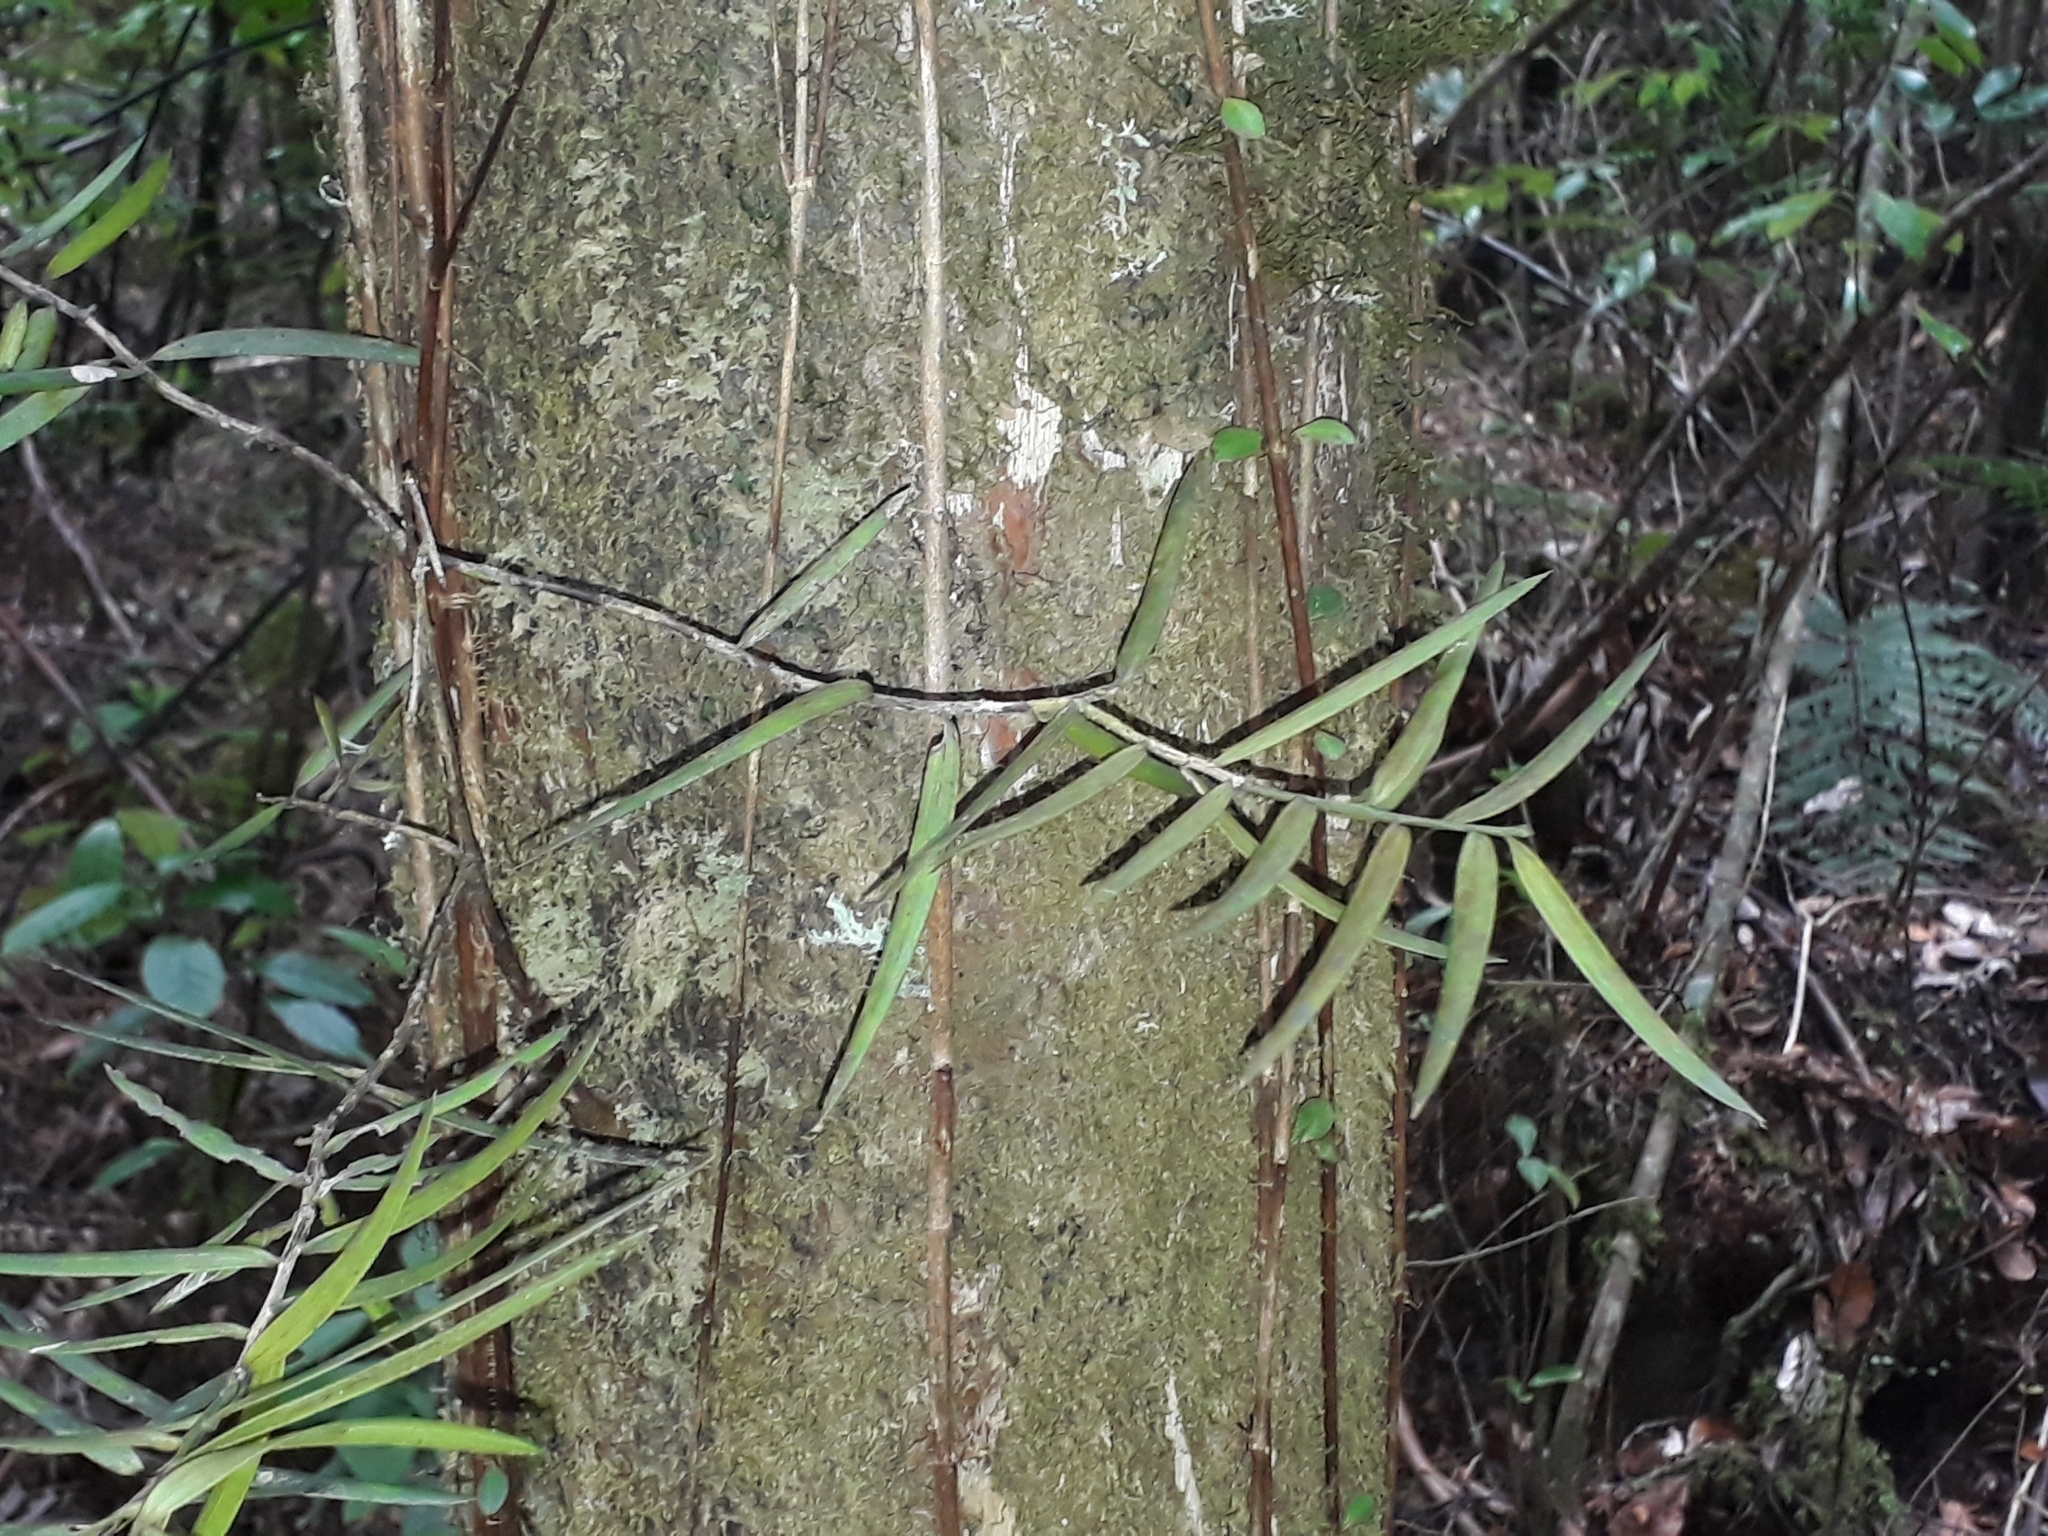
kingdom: Plantae
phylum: Tracheophyta
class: Pinopsida
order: Pinales
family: Podocarpaceae
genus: Podocarpus
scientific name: Podocarpus laetus
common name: Hall's totara
